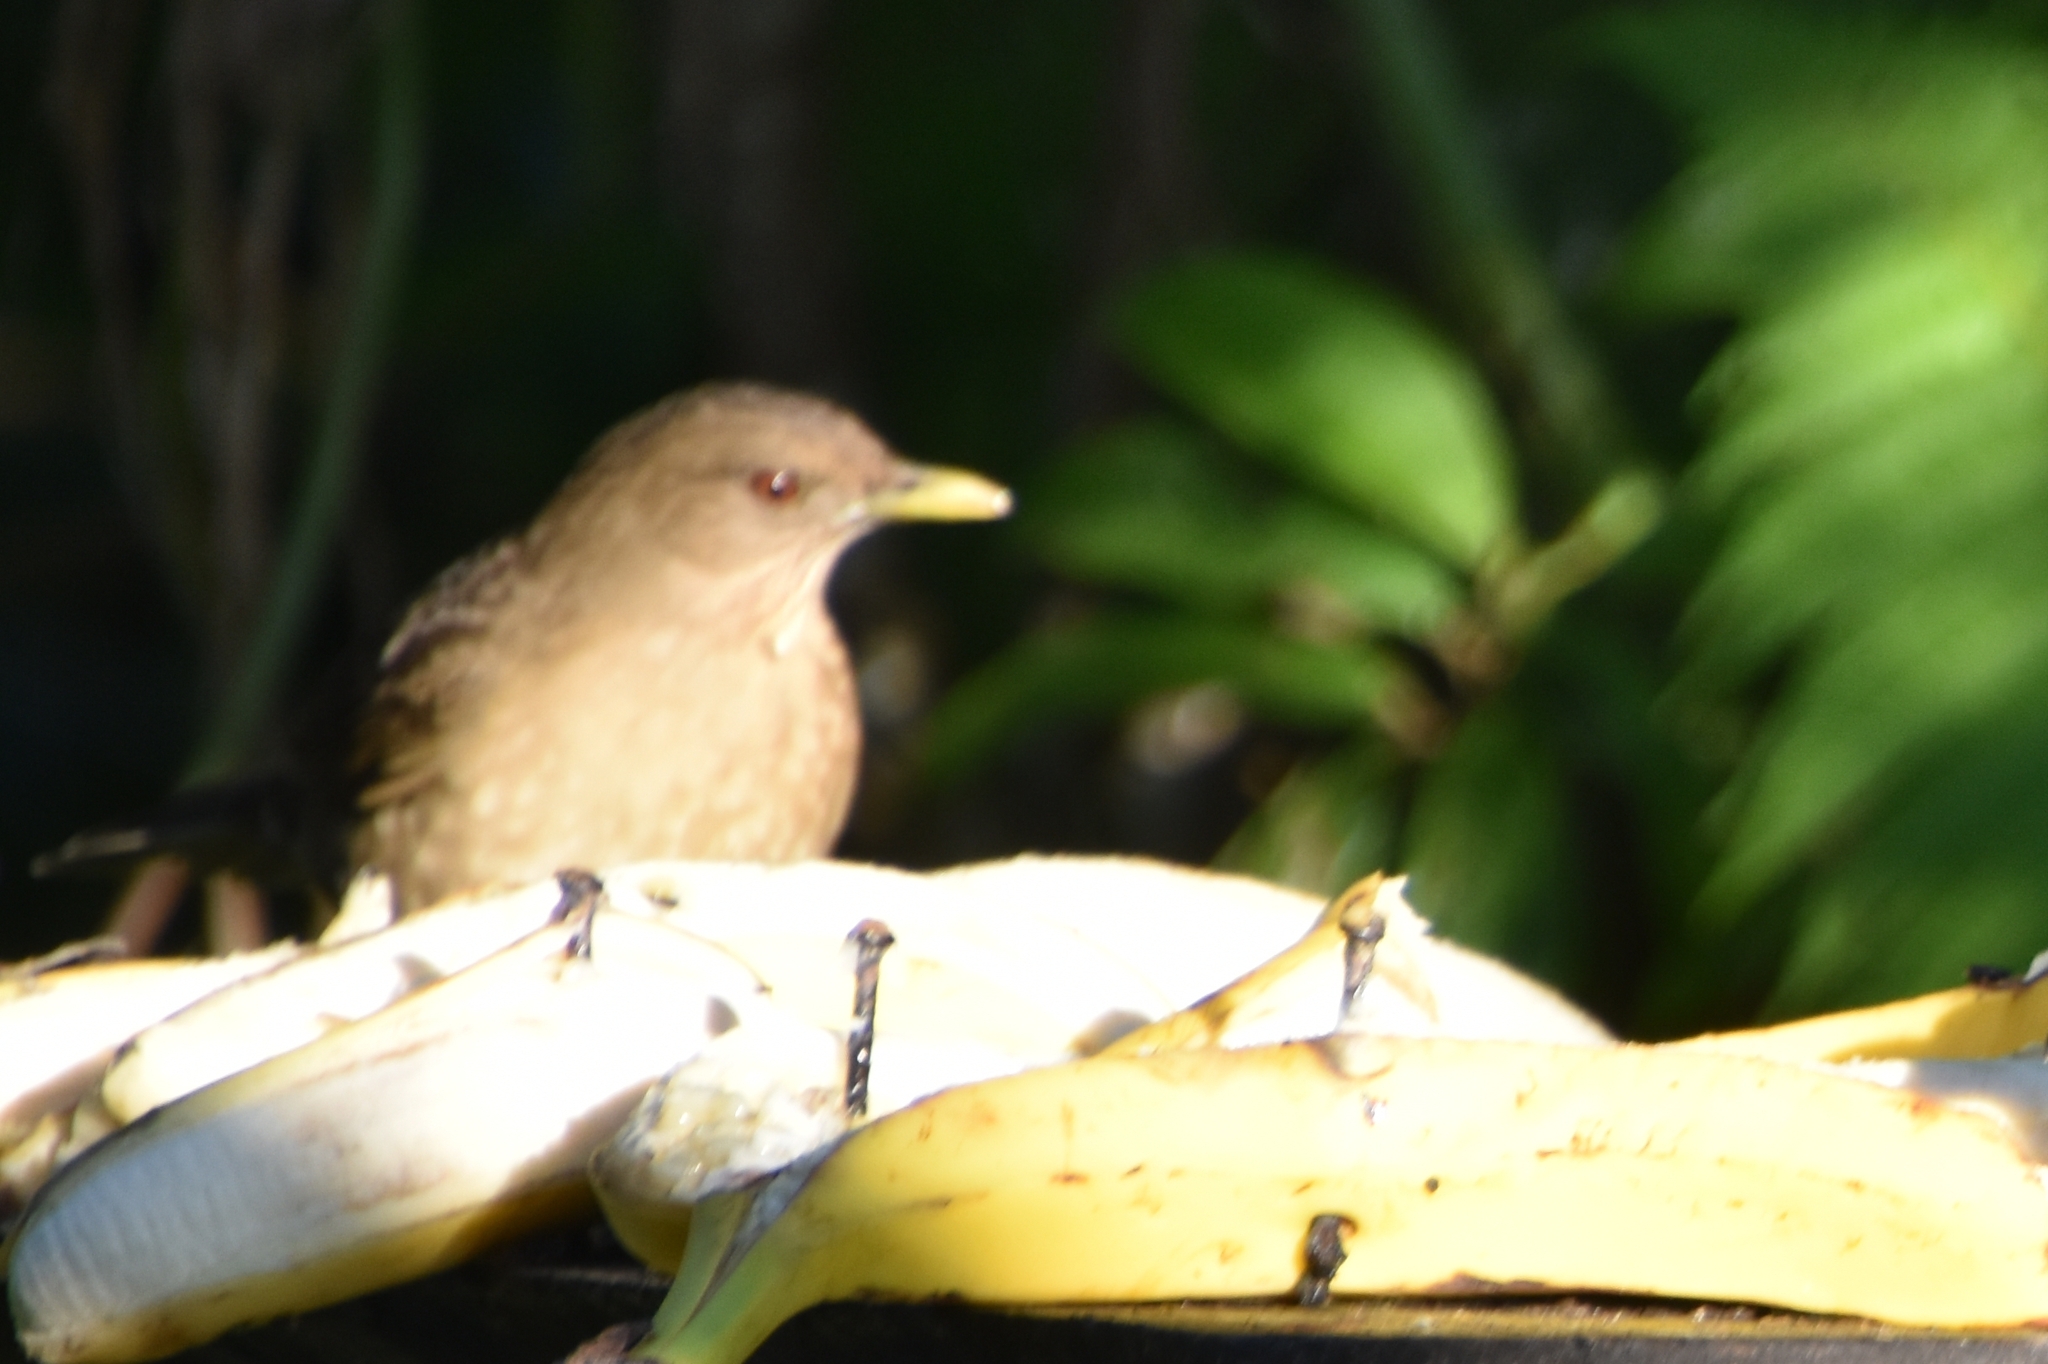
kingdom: Animalia
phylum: Chordata
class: Aves
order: Passeriformes
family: Turdidae
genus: Turdus
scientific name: Turdus grayi
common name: Clay-colored thrush
